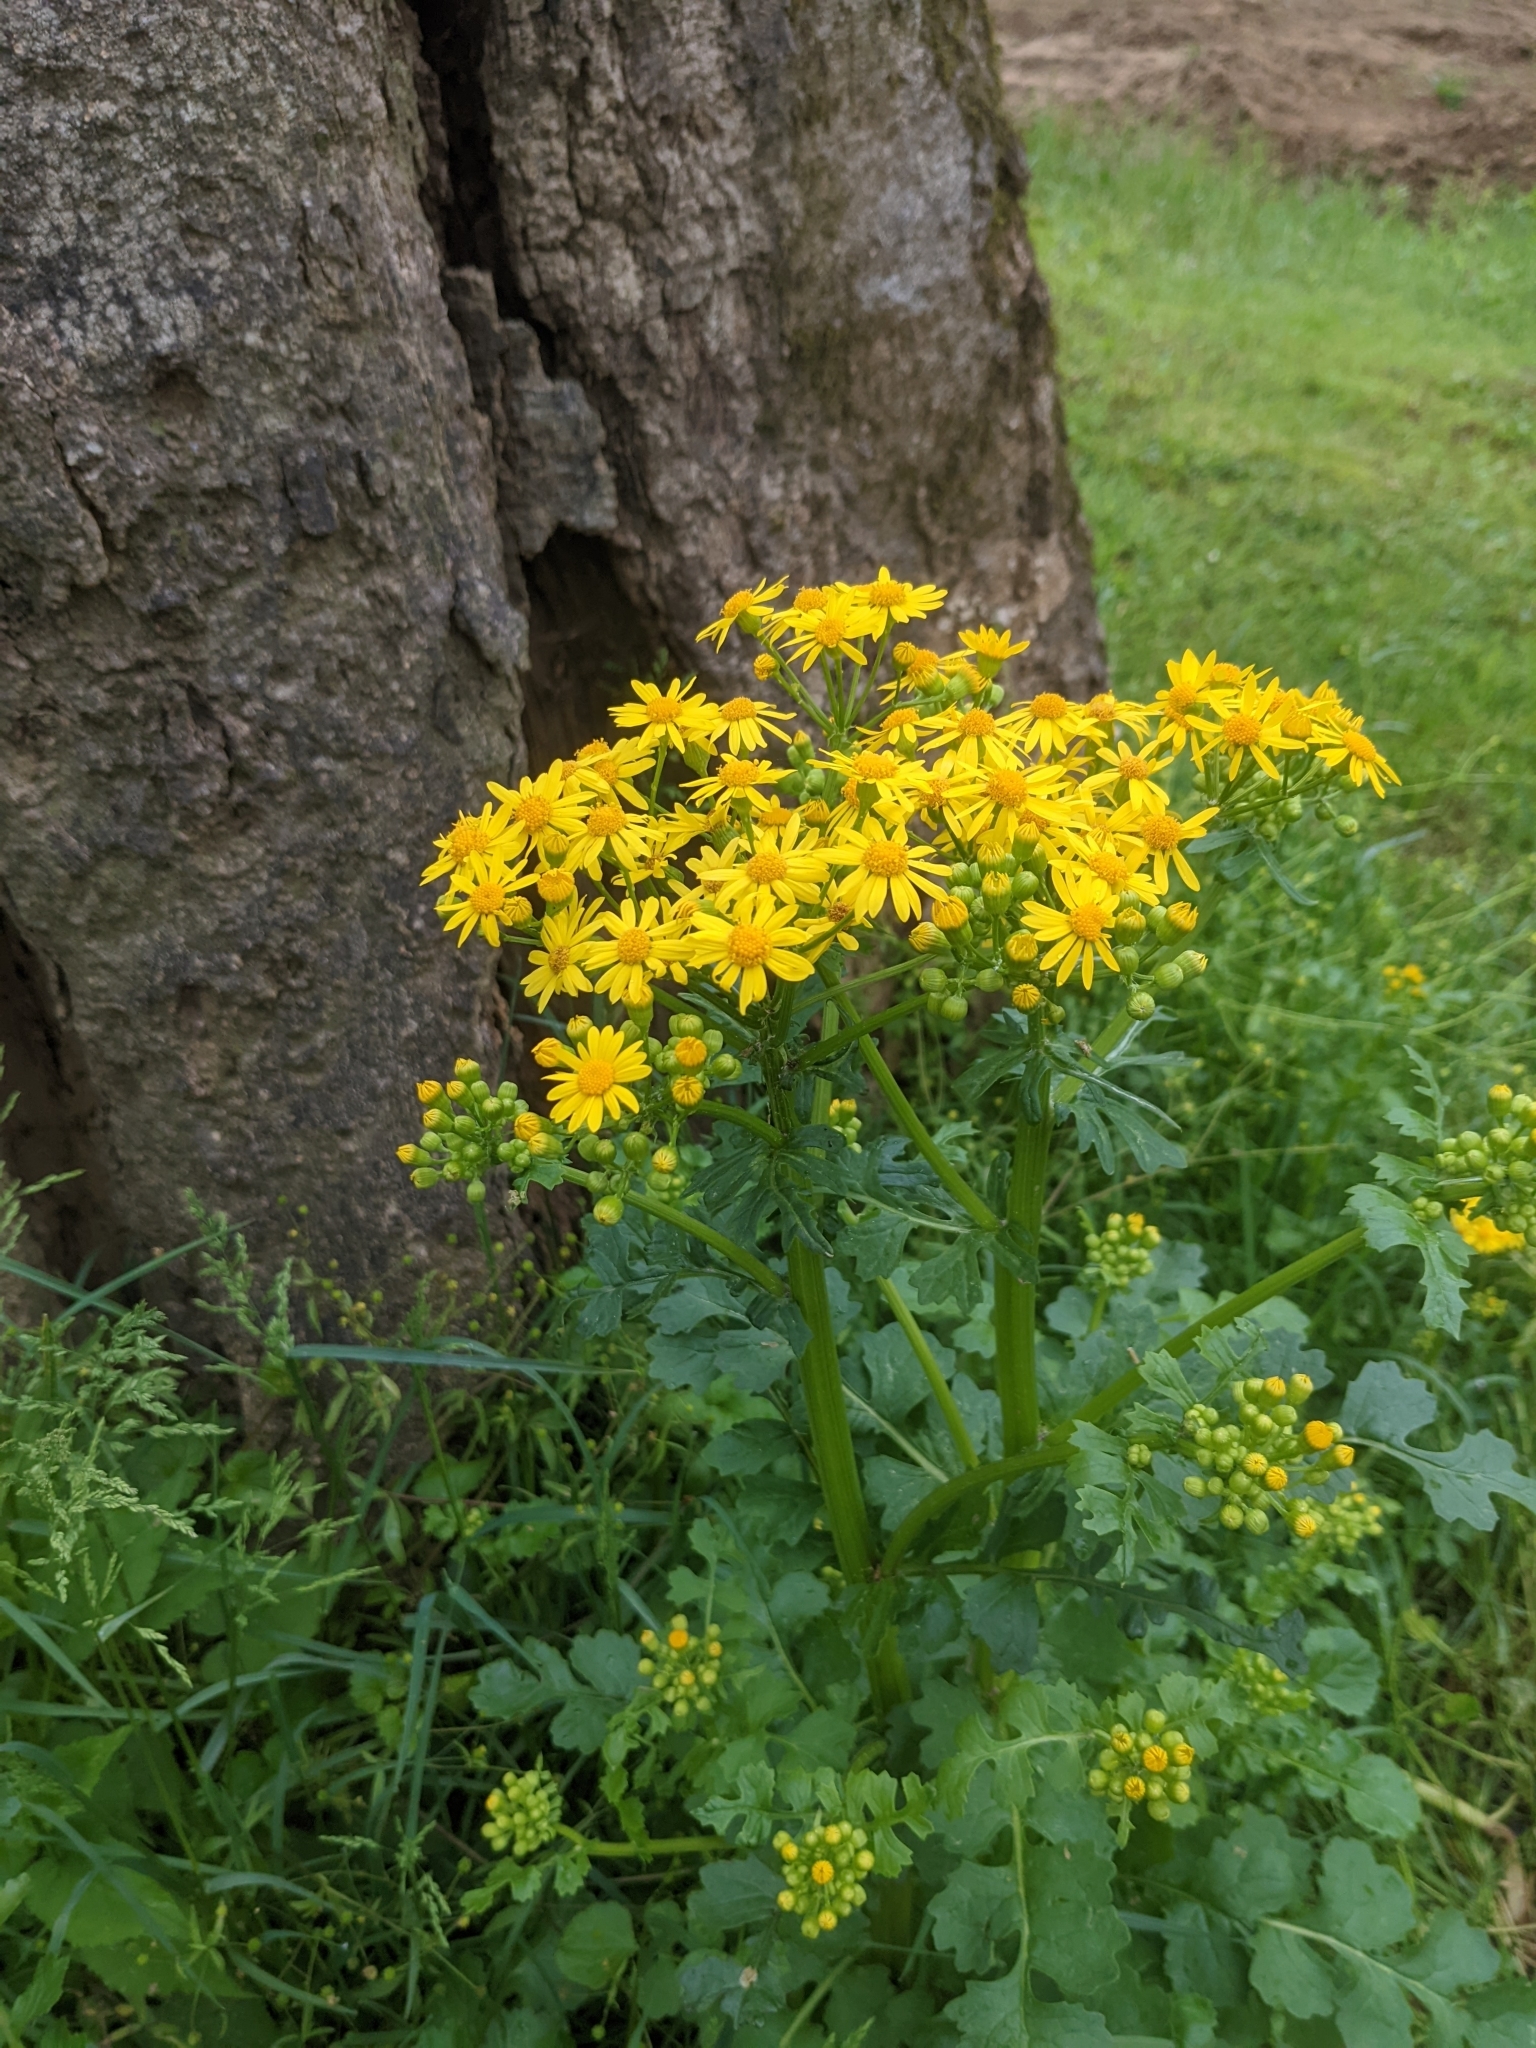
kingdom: Plantae
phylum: Tracheophyta
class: Magnoliopsida
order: Asterales
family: Asteraceae
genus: Packera
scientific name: Packera glabella
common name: Butterweed
